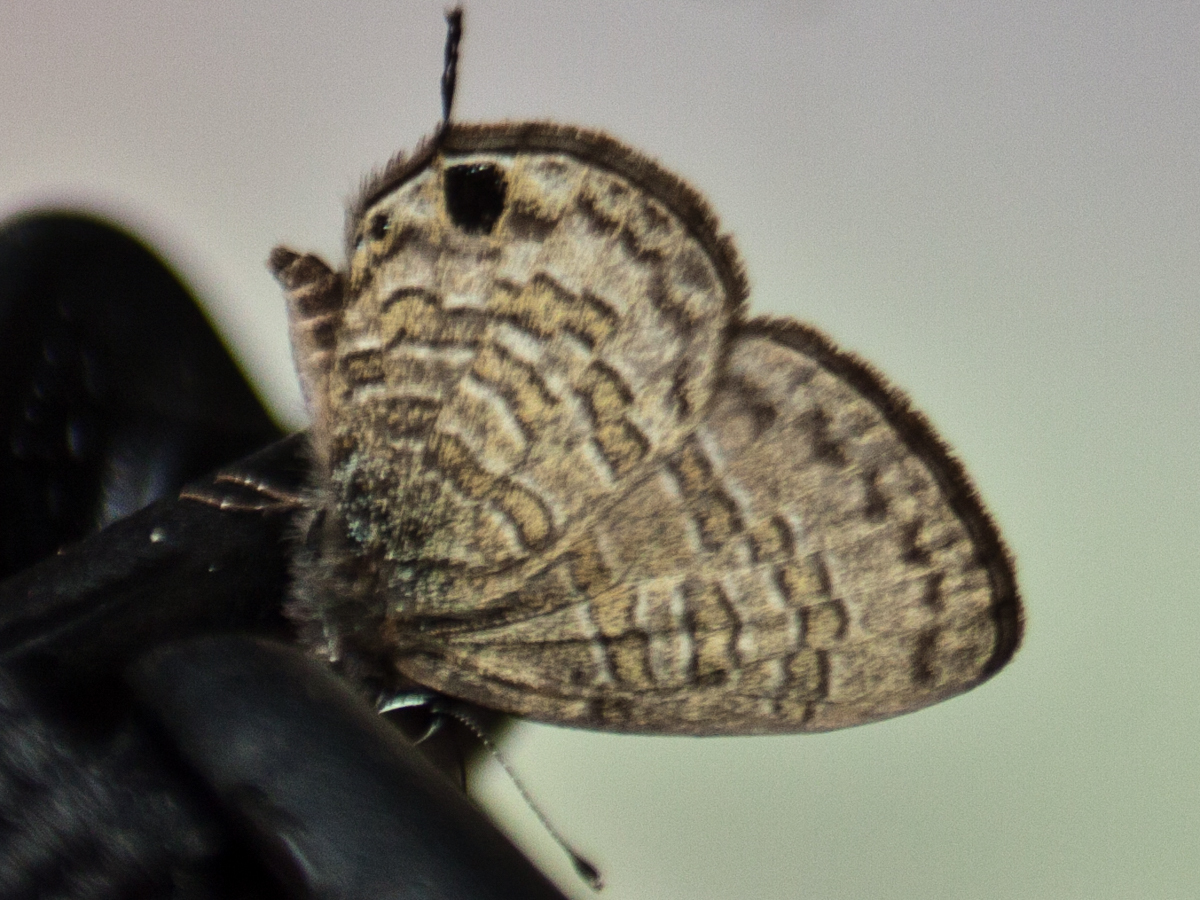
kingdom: Animalia
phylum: Arthropoda
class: Insecta
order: Lepidoptera
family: Lycaenidae
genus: Prosotas
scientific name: Prosotas nora
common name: Common line blue
